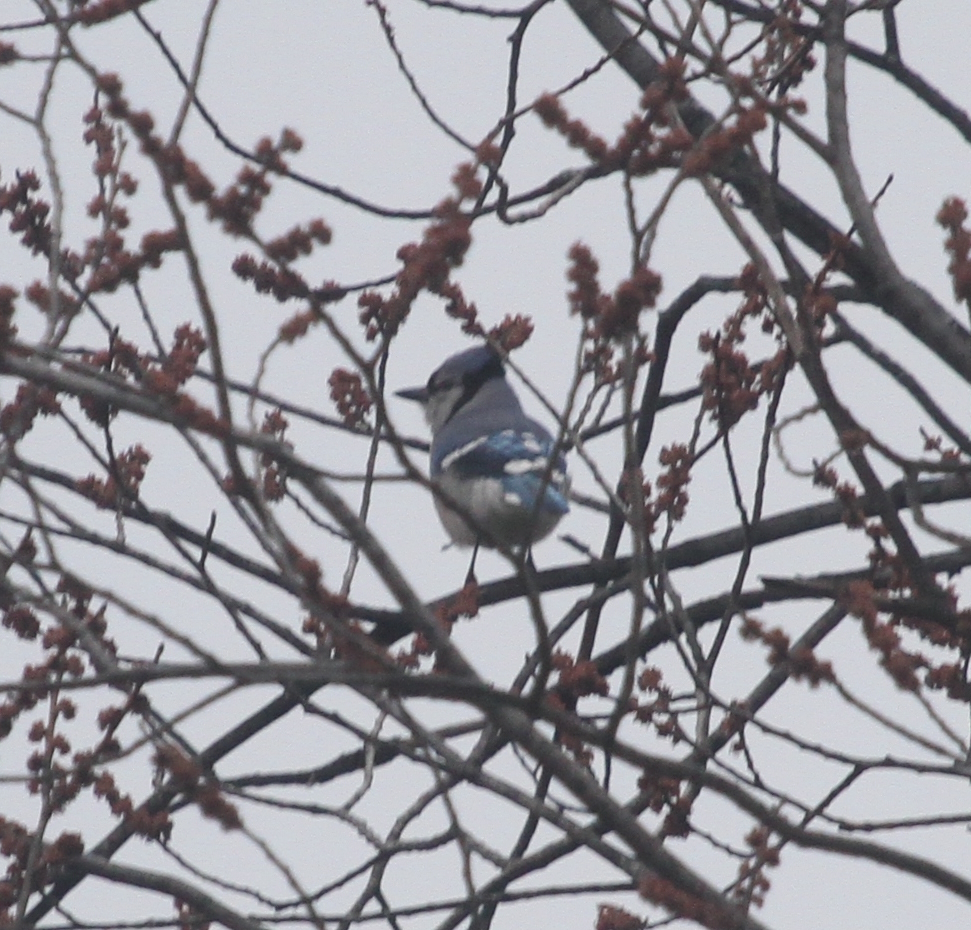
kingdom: Animalia
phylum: Chordata
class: Aves
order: Passeriformes
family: Corvidae
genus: Cyanocitta
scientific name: Cyanocitta cristata
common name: Blue jay
